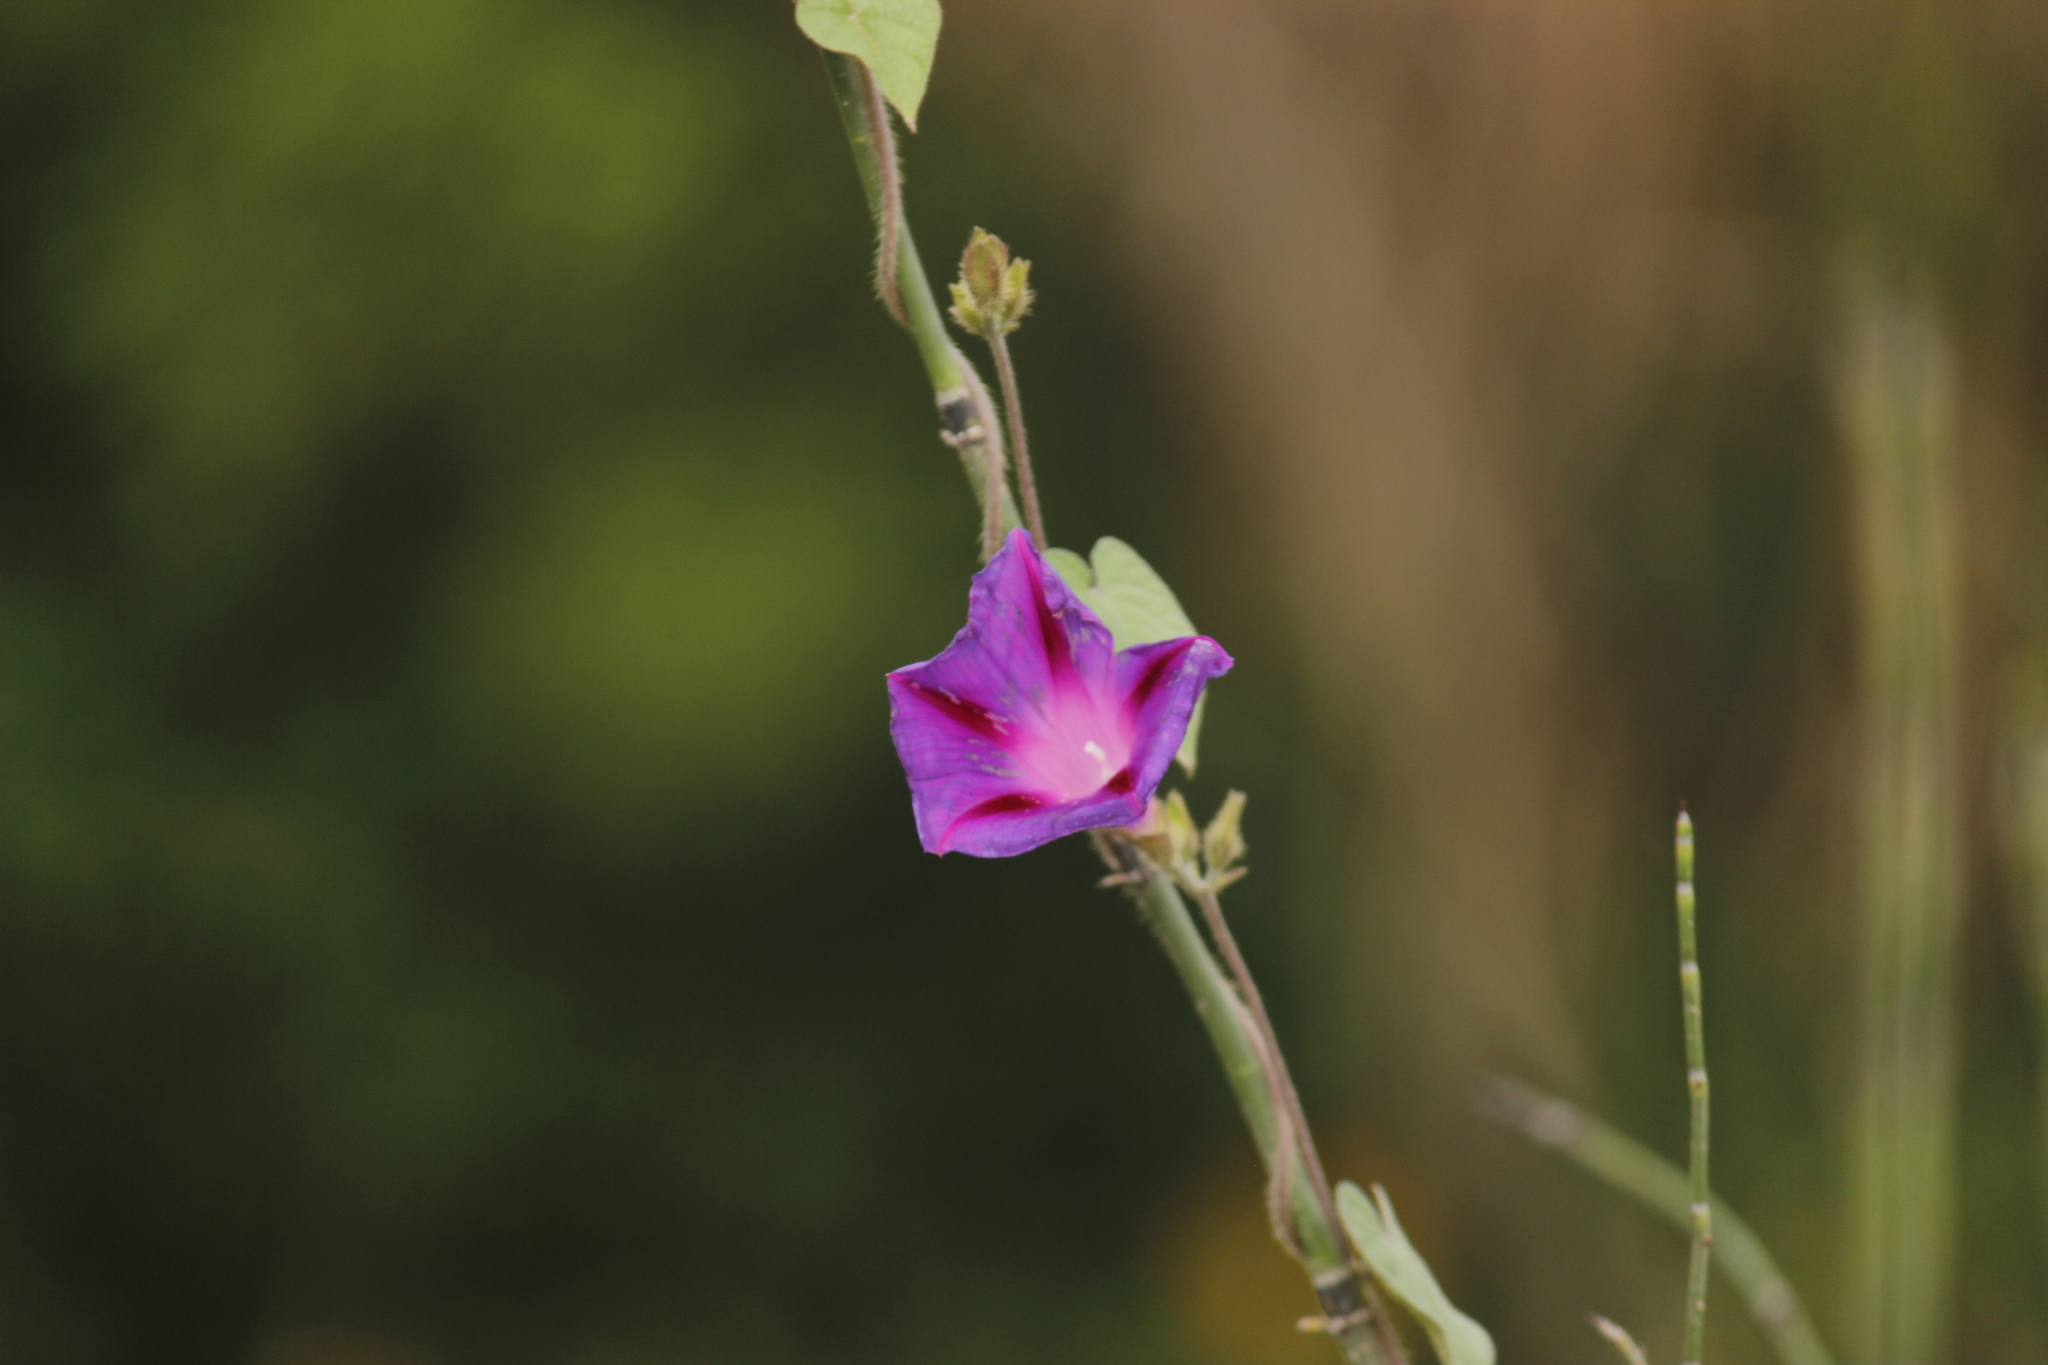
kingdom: Plantae
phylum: Tracheophyta
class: Magnoliopsida
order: Solanales
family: Convolvulaceae
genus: Ipomoea
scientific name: Ipomoea purpurea
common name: Common morning-glory
